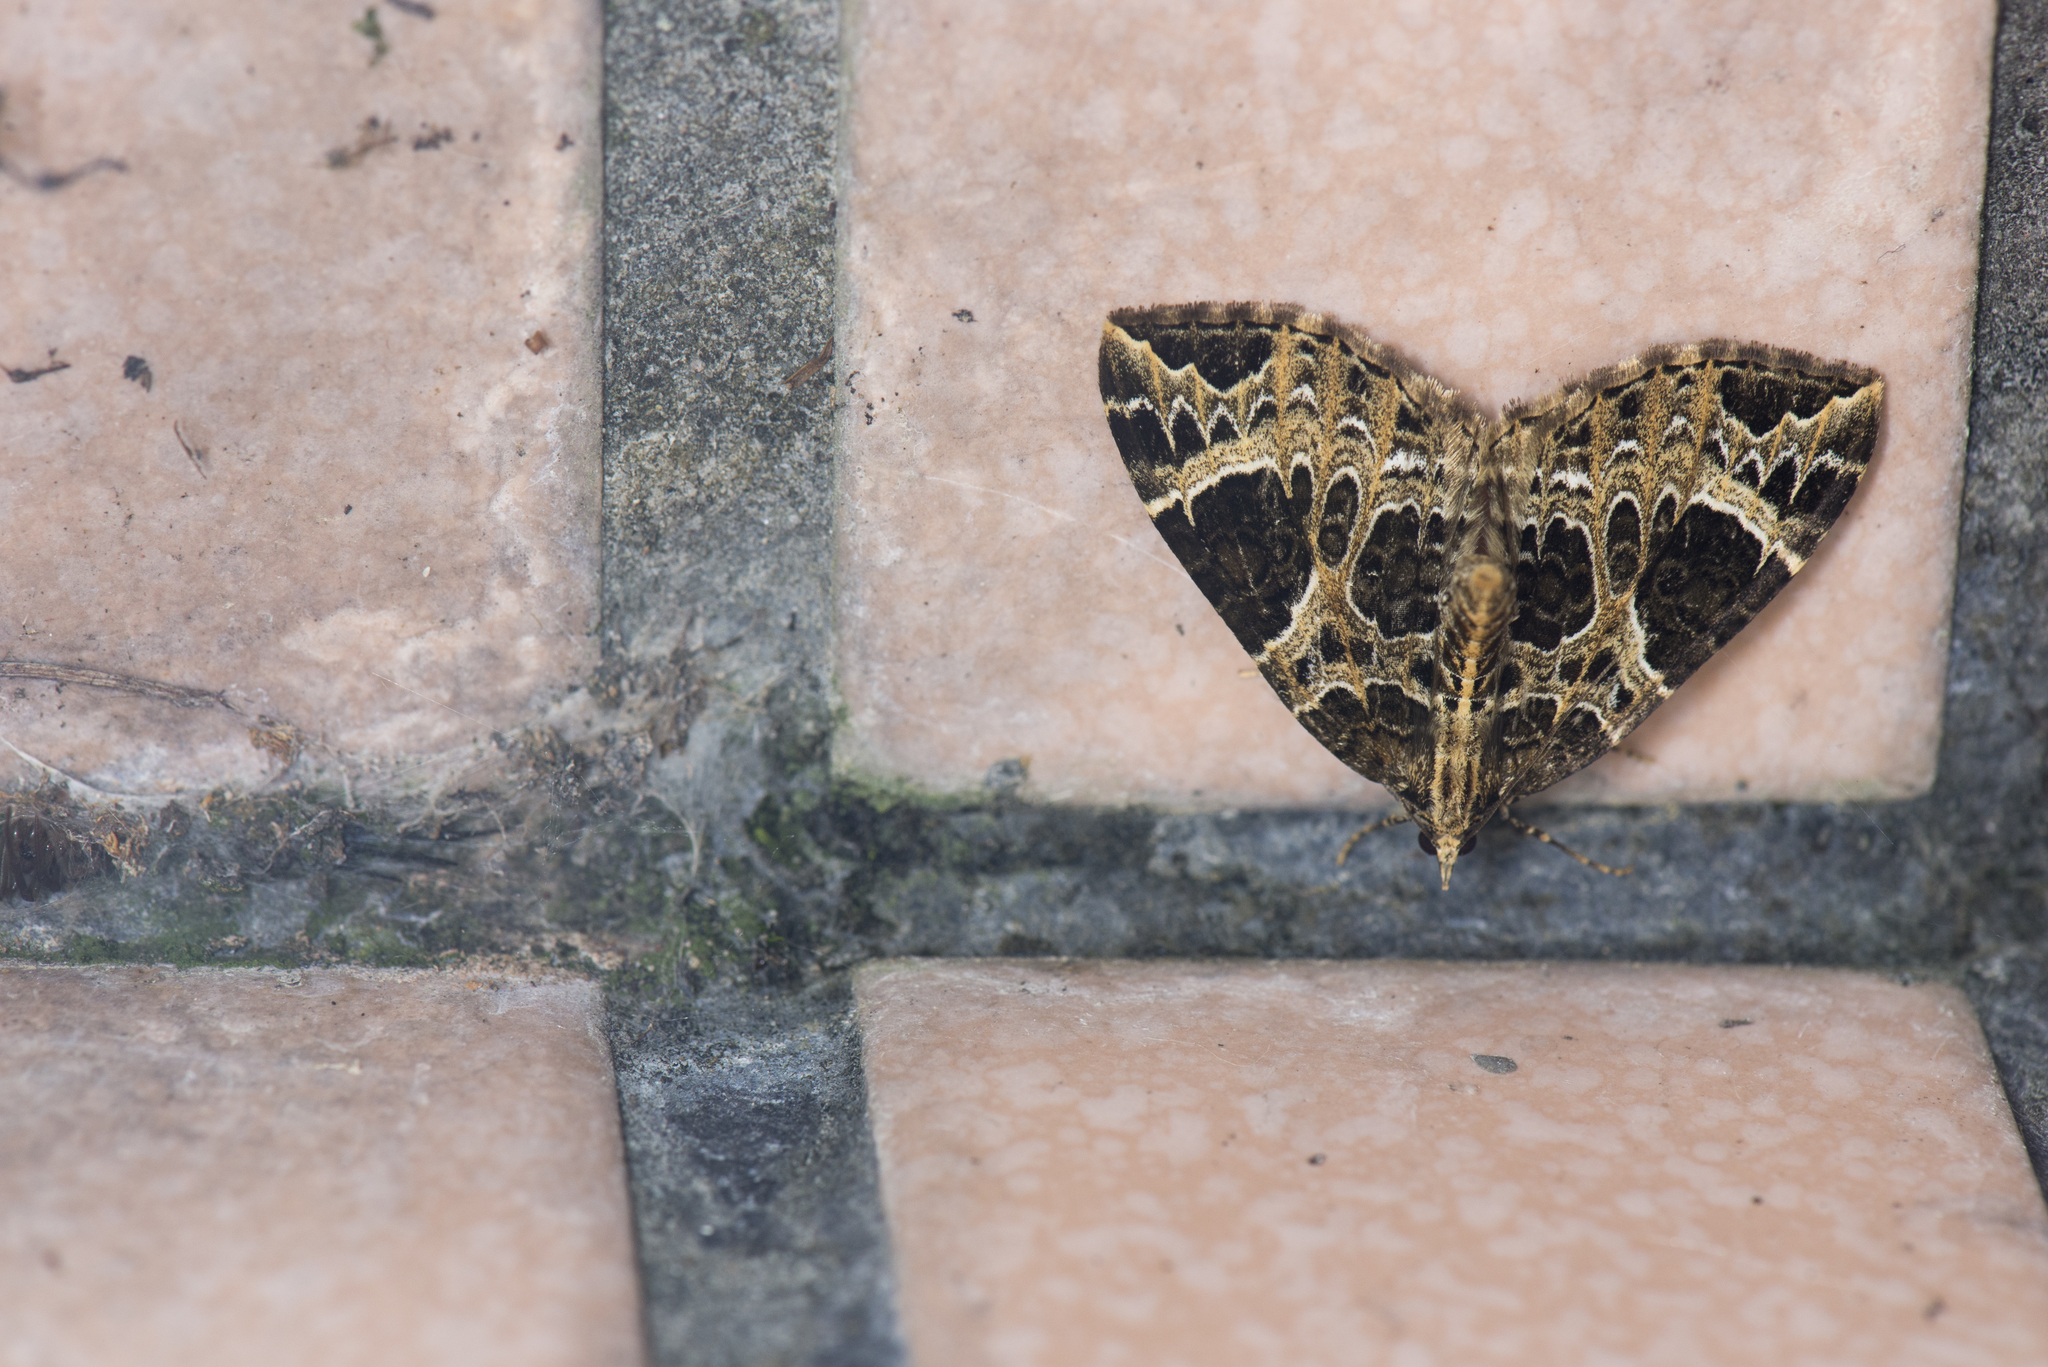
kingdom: Animalia
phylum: Arthropoda
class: Insecta
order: Lepidoptera
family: Geometridae
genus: Eustroma
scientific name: Eustroma melancholica
